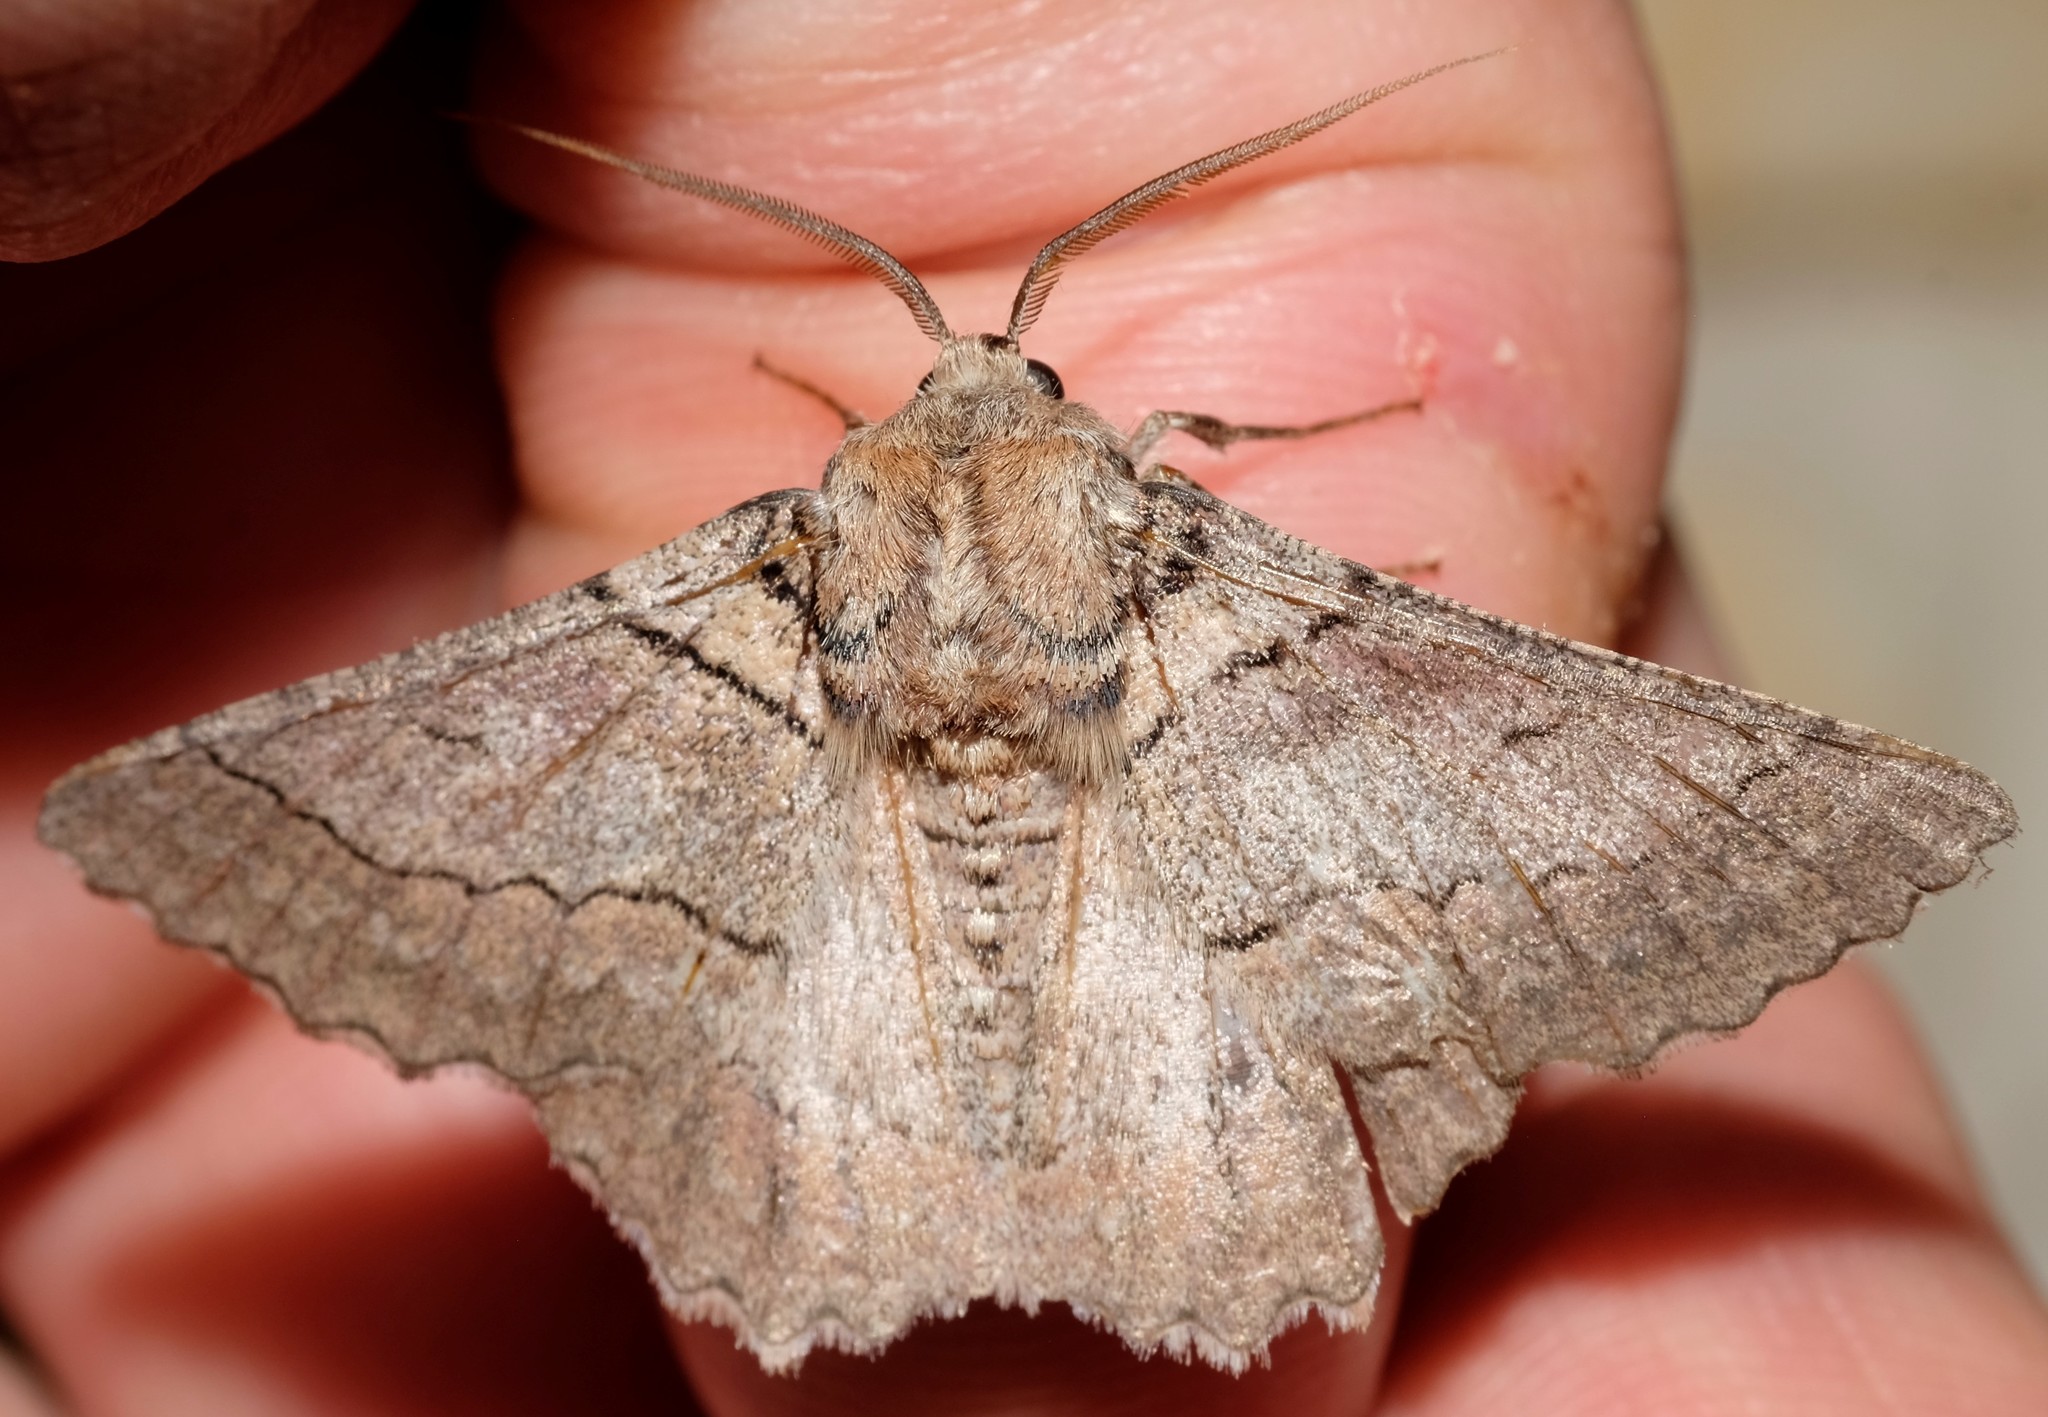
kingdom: Animalia
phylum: Arthropoda
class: Insecta
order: Lepidoptera
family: Geometridae
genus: Hypobapta
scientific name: Hypobapta tachyhalotaria
